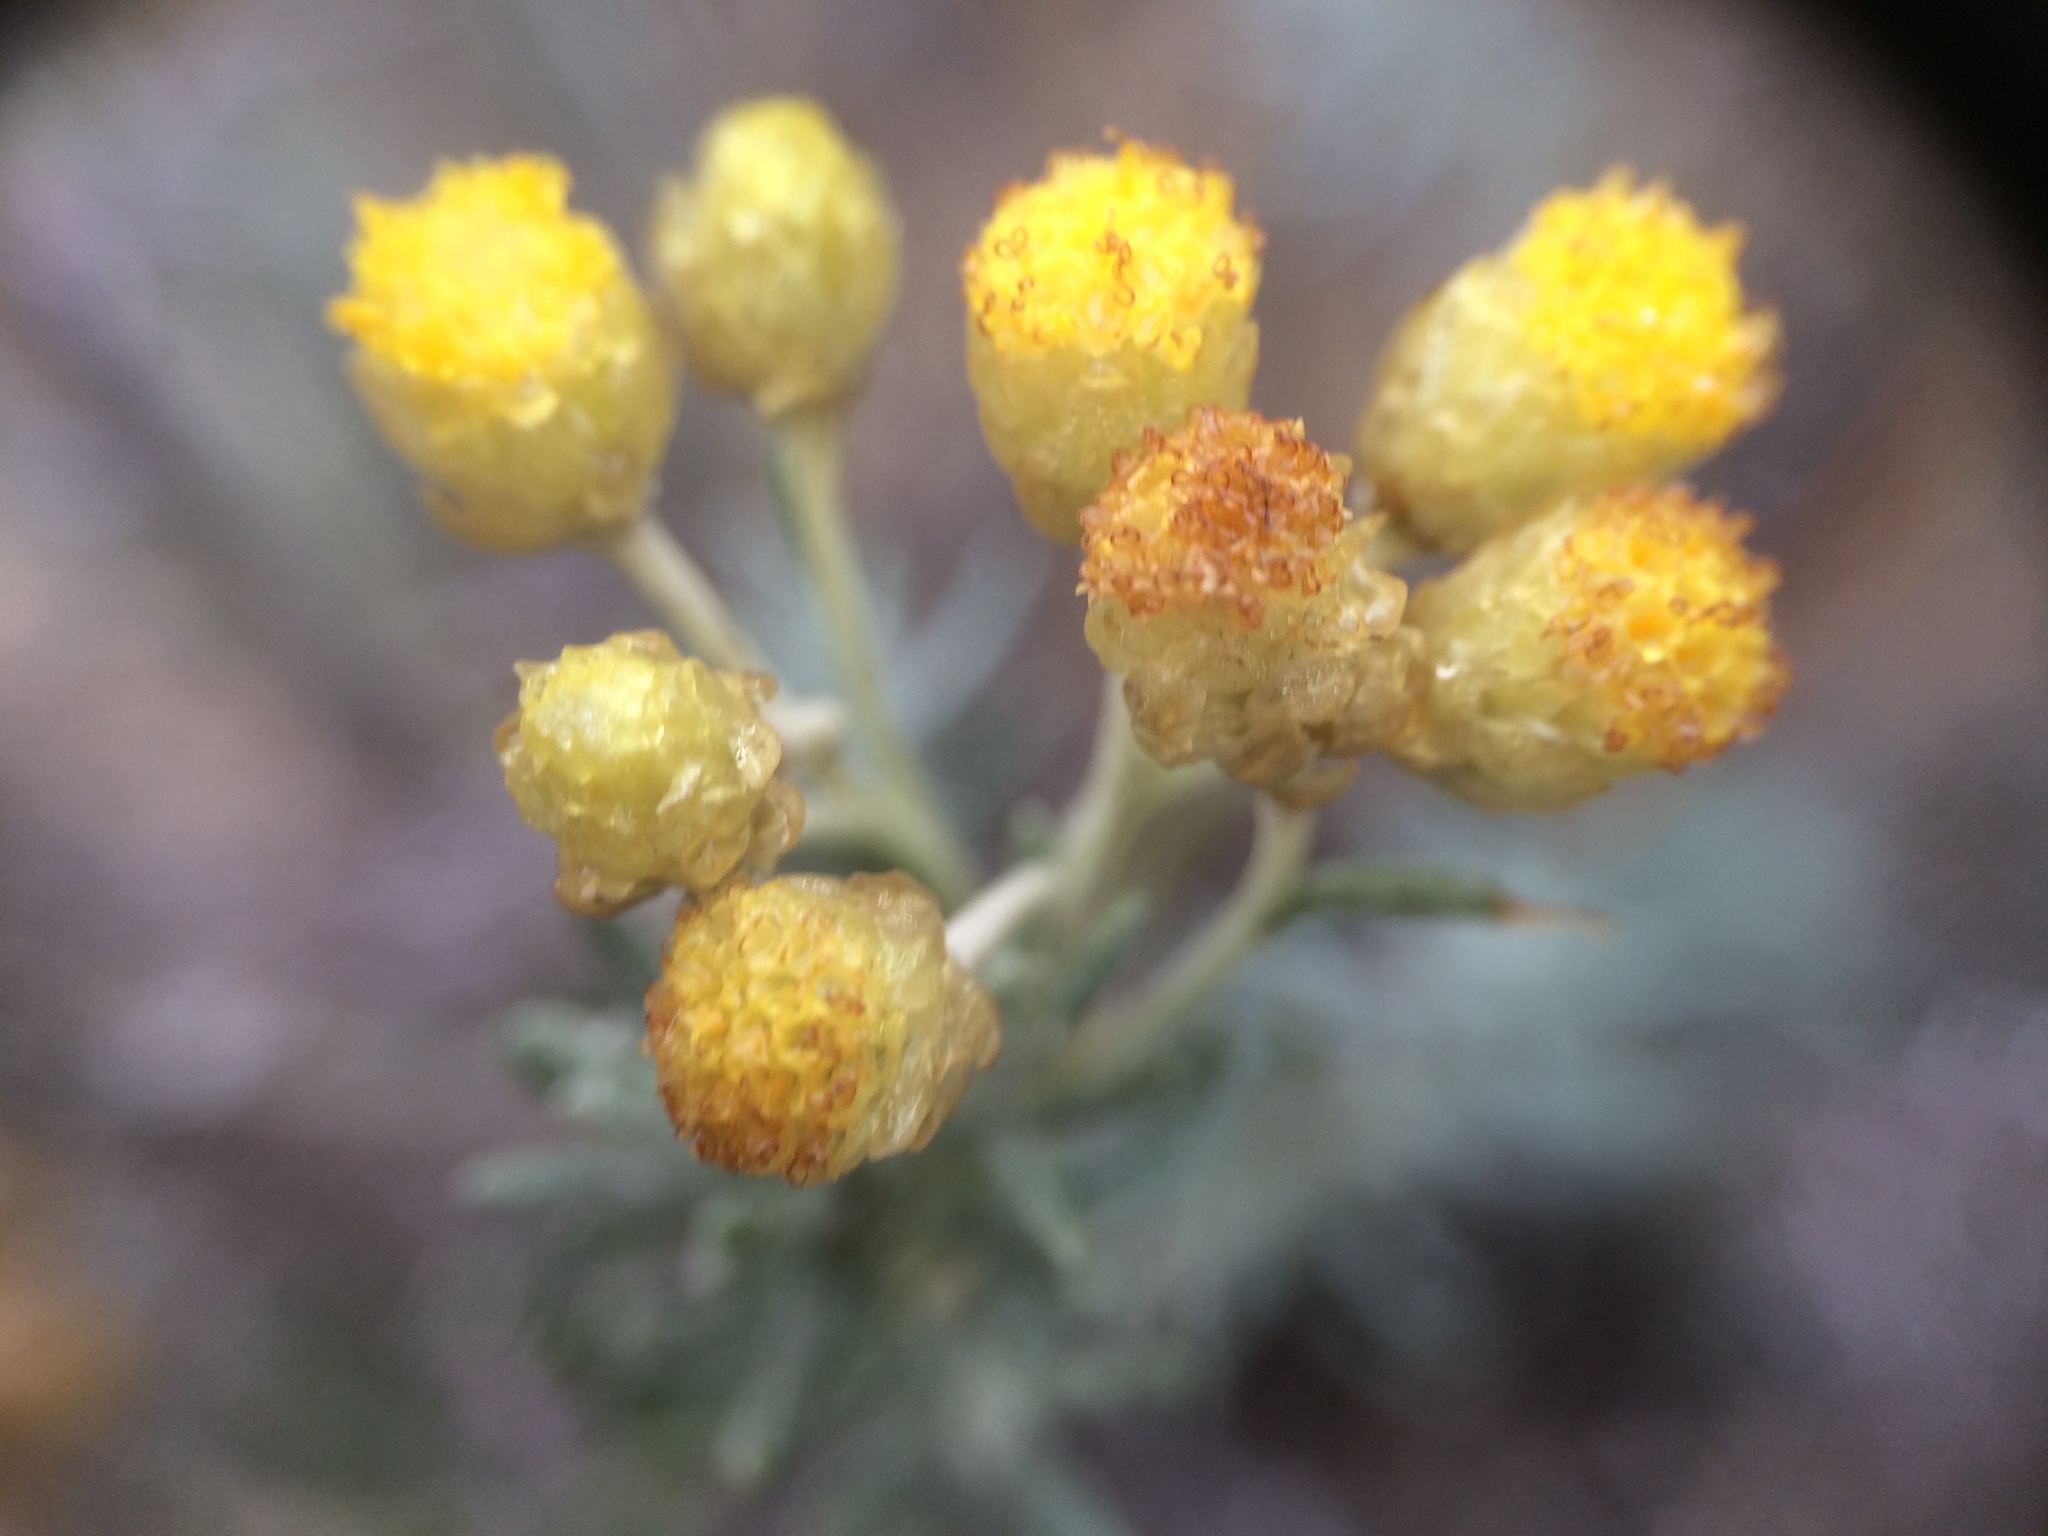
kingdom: Plantae
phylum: Tracheophyta
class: Magnoliopsida
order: Asterales
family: Asteraceae
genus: Helichrysum
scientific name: Helichrysum stoechas
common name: Goldilocks
